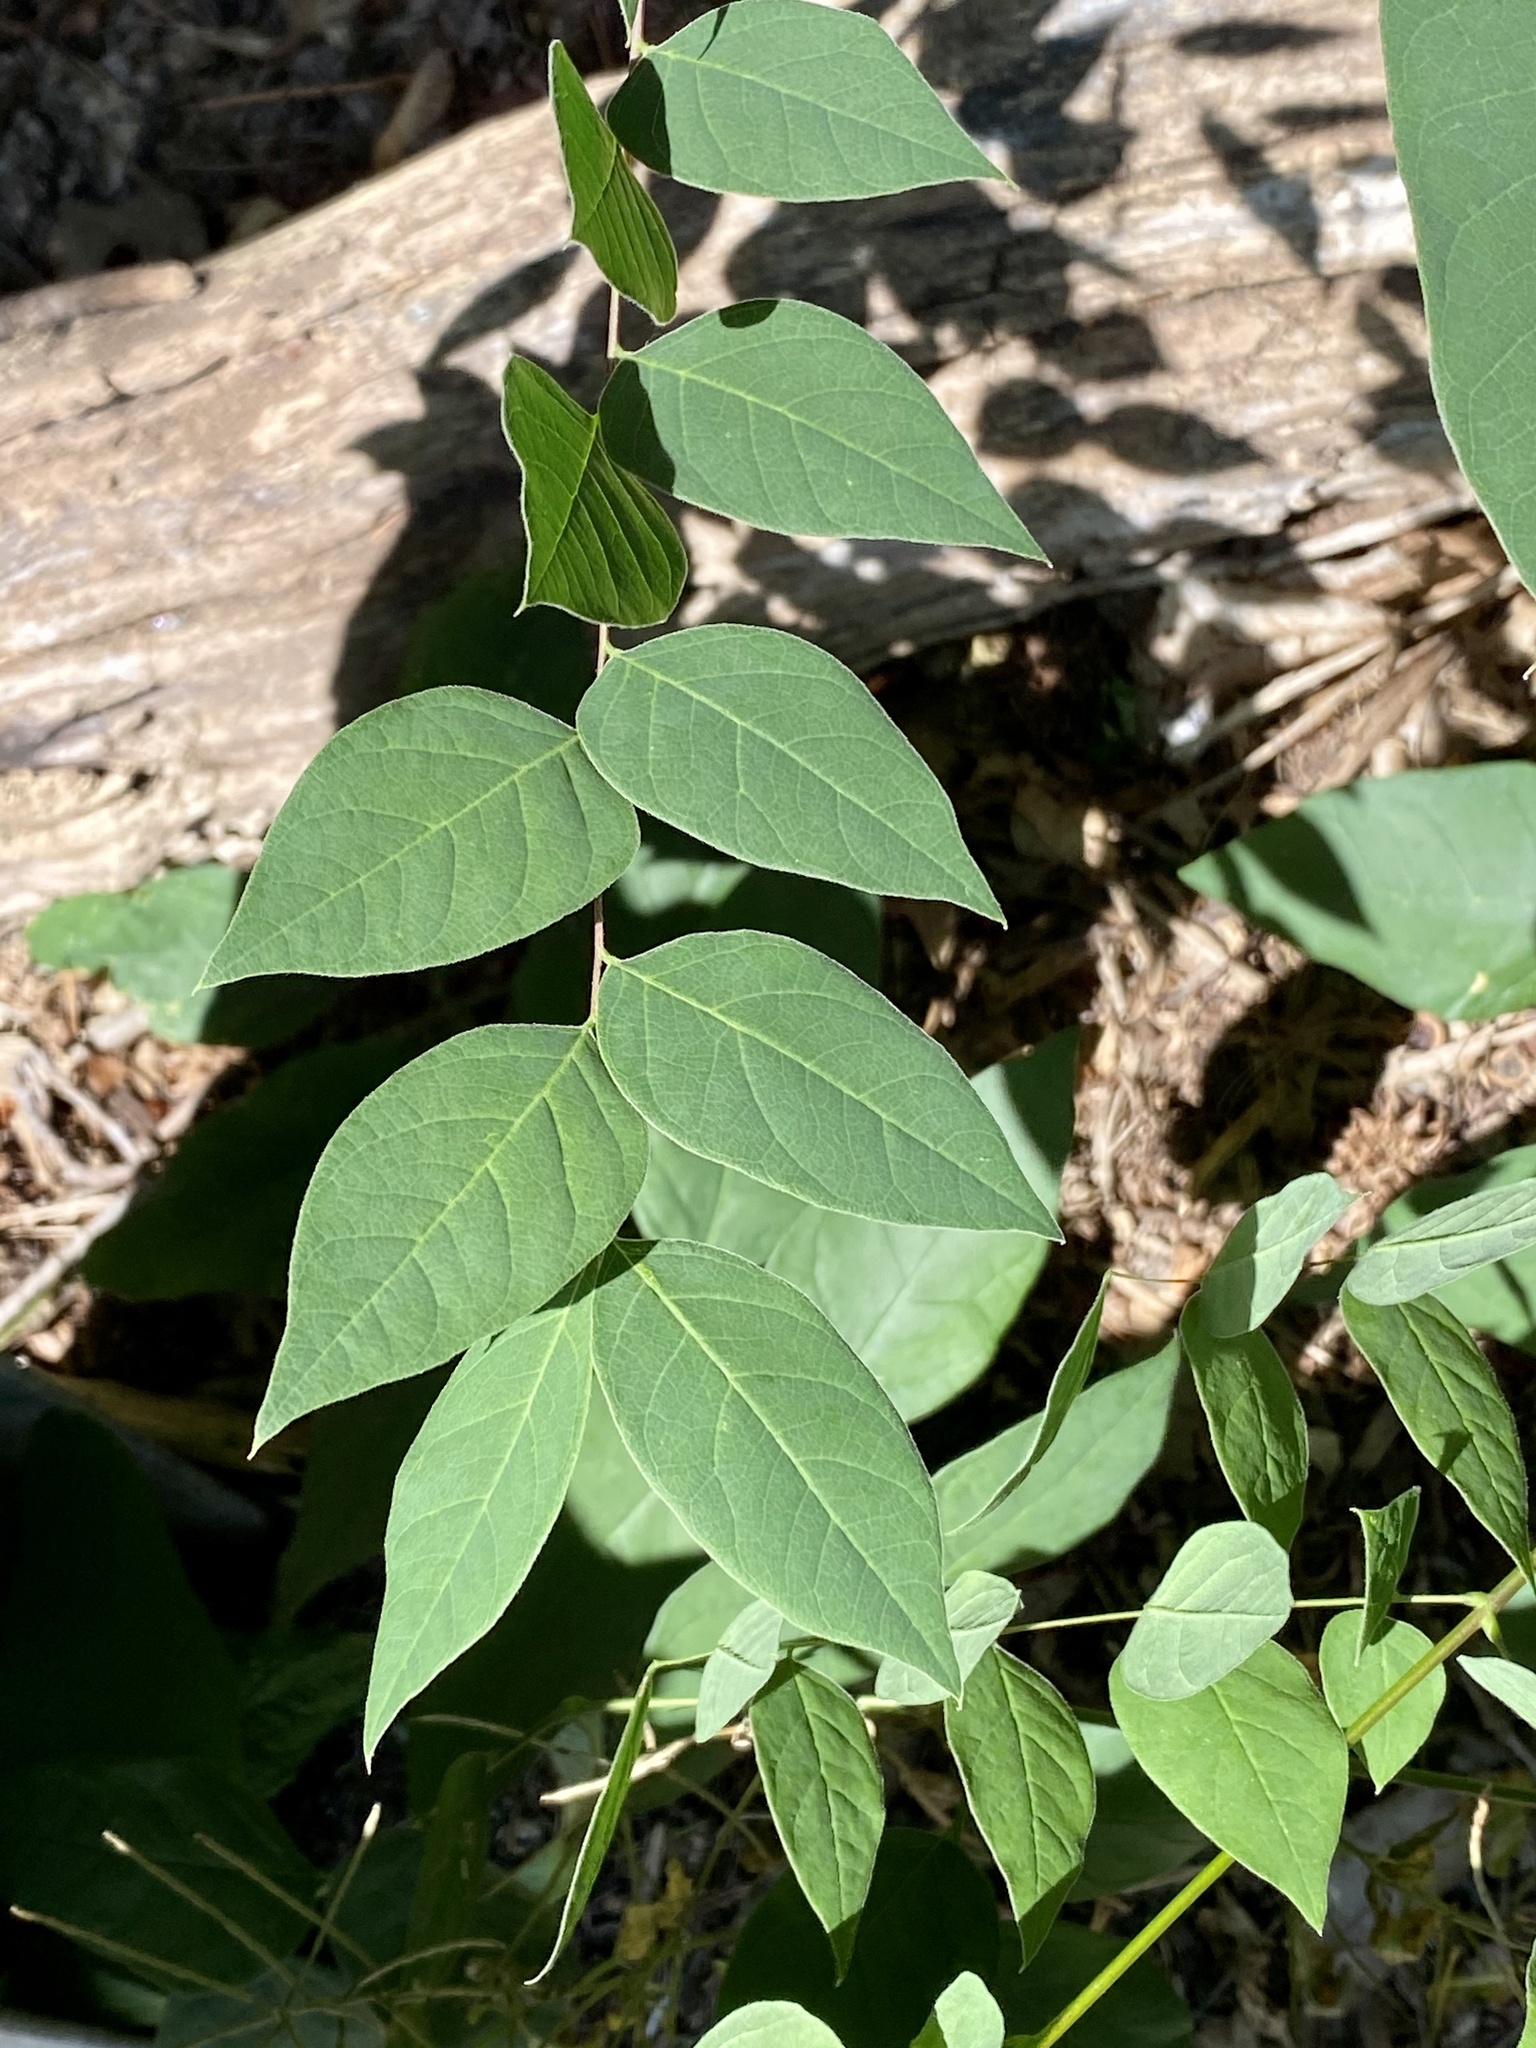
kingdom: Plantae
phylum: Tracheophyta
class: Magnoliopsida
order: Fabales
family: Fabaceae
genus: Gymnocladus
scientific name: Gymnocladus dioicus
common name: Kentucky coffee-tree
